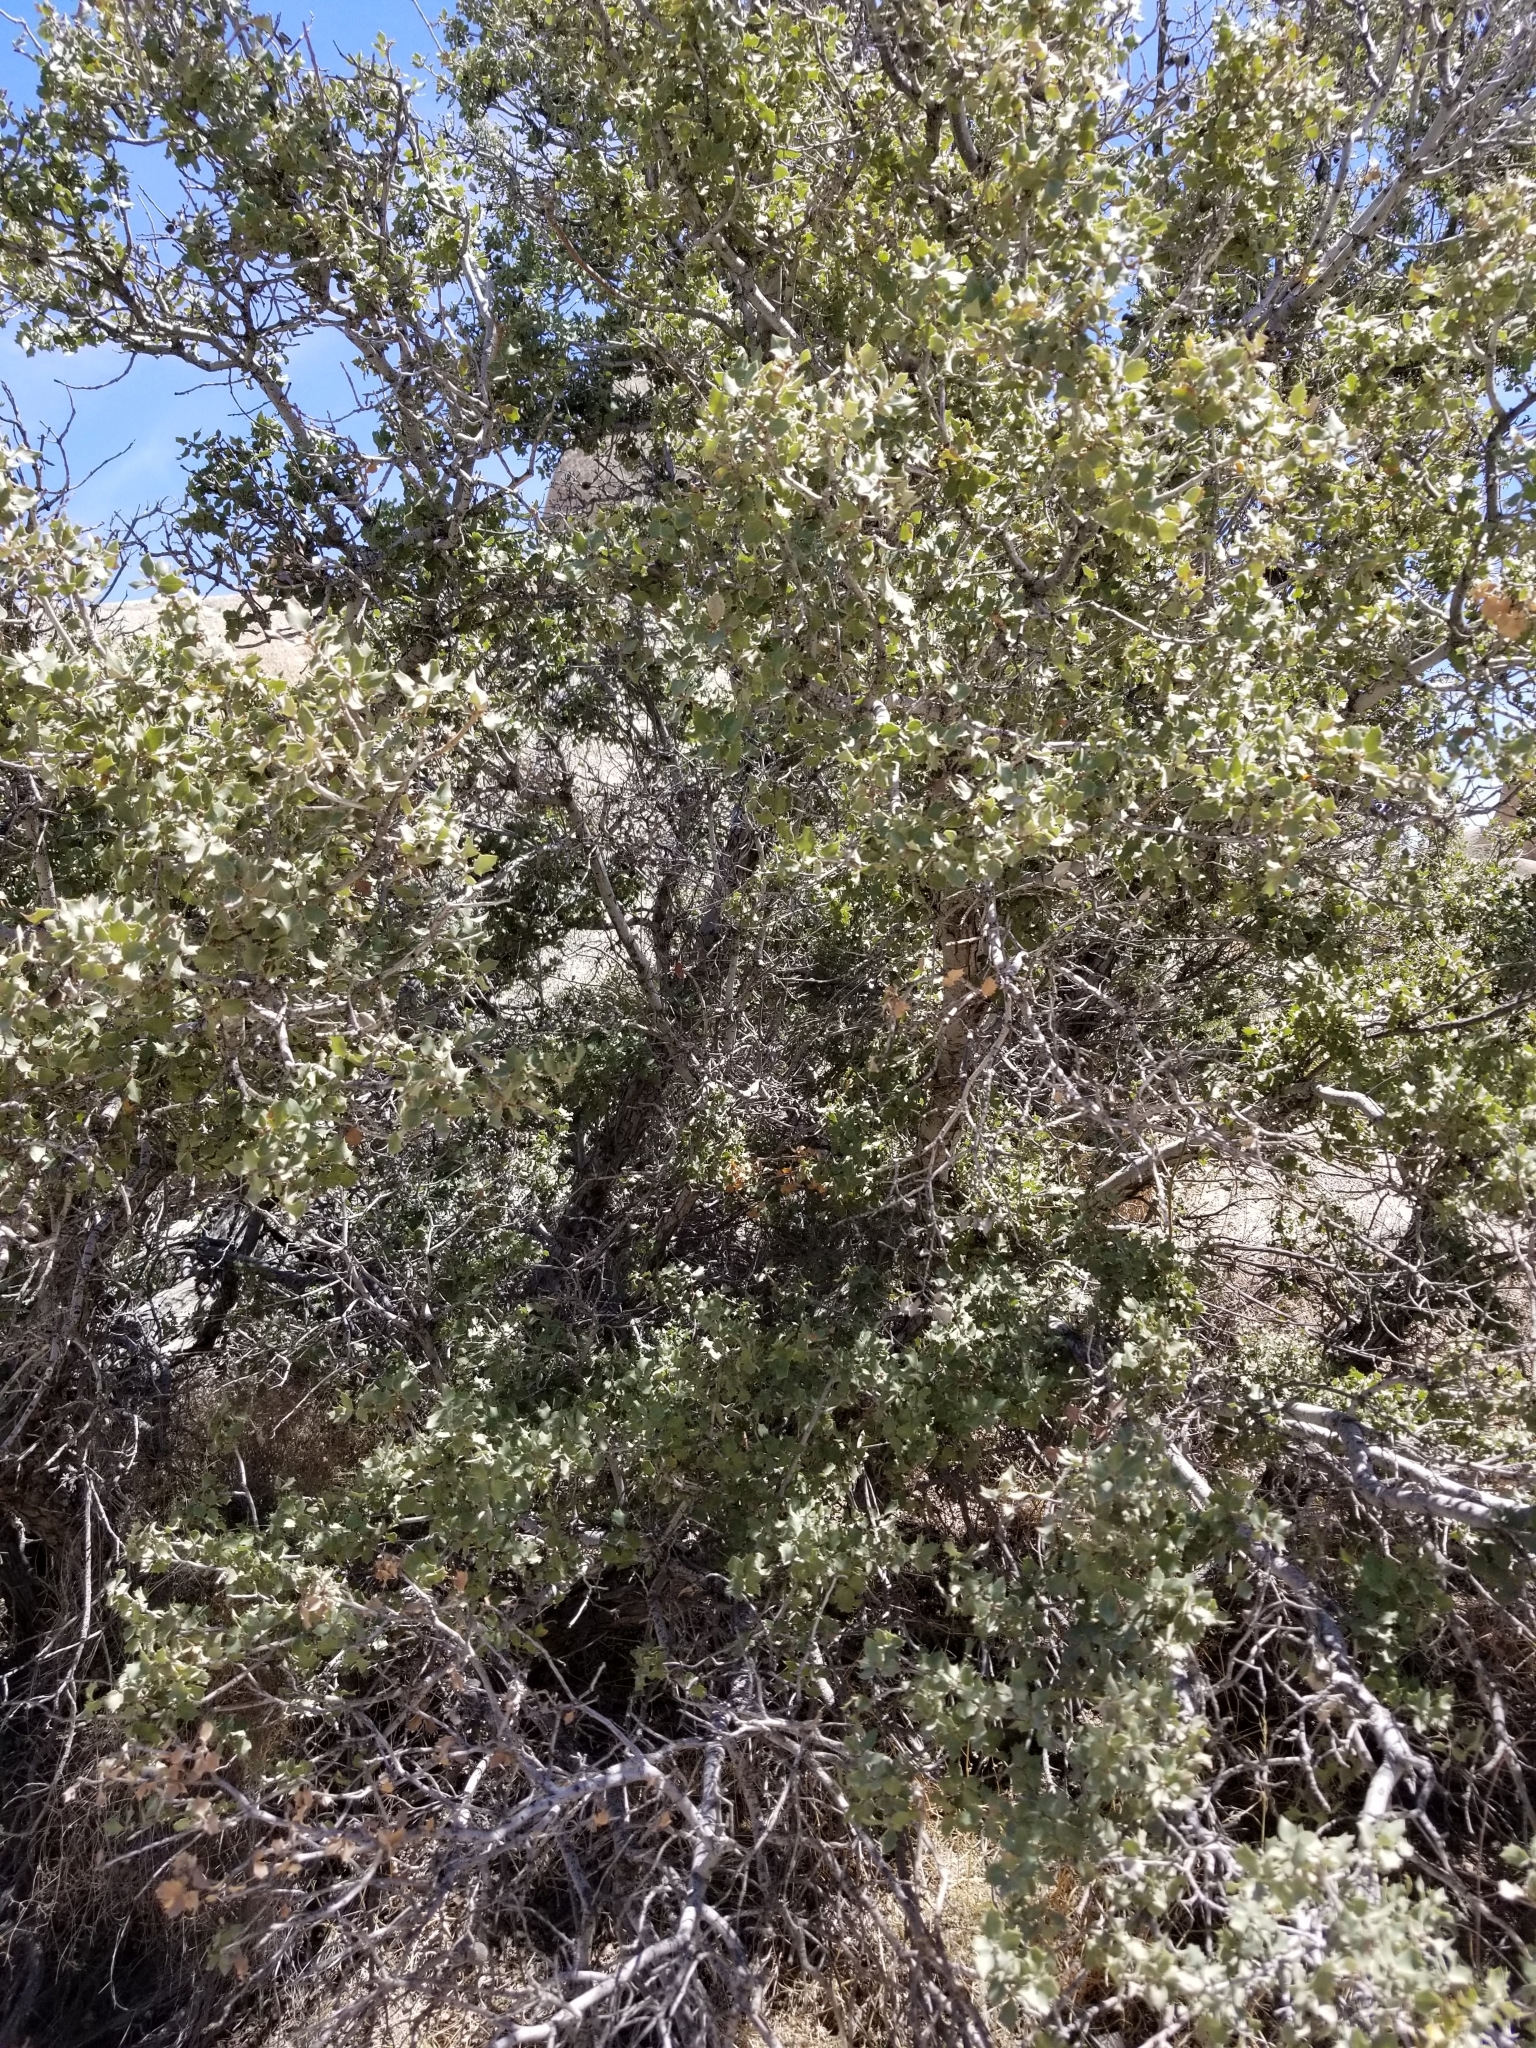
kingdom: Plantae
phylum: Tracheophyta
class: Magnoliopsida
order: Fagales
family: Fagaceae
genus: Quercus
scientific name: Quercus cornelius-mulleri
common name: Muller oak
